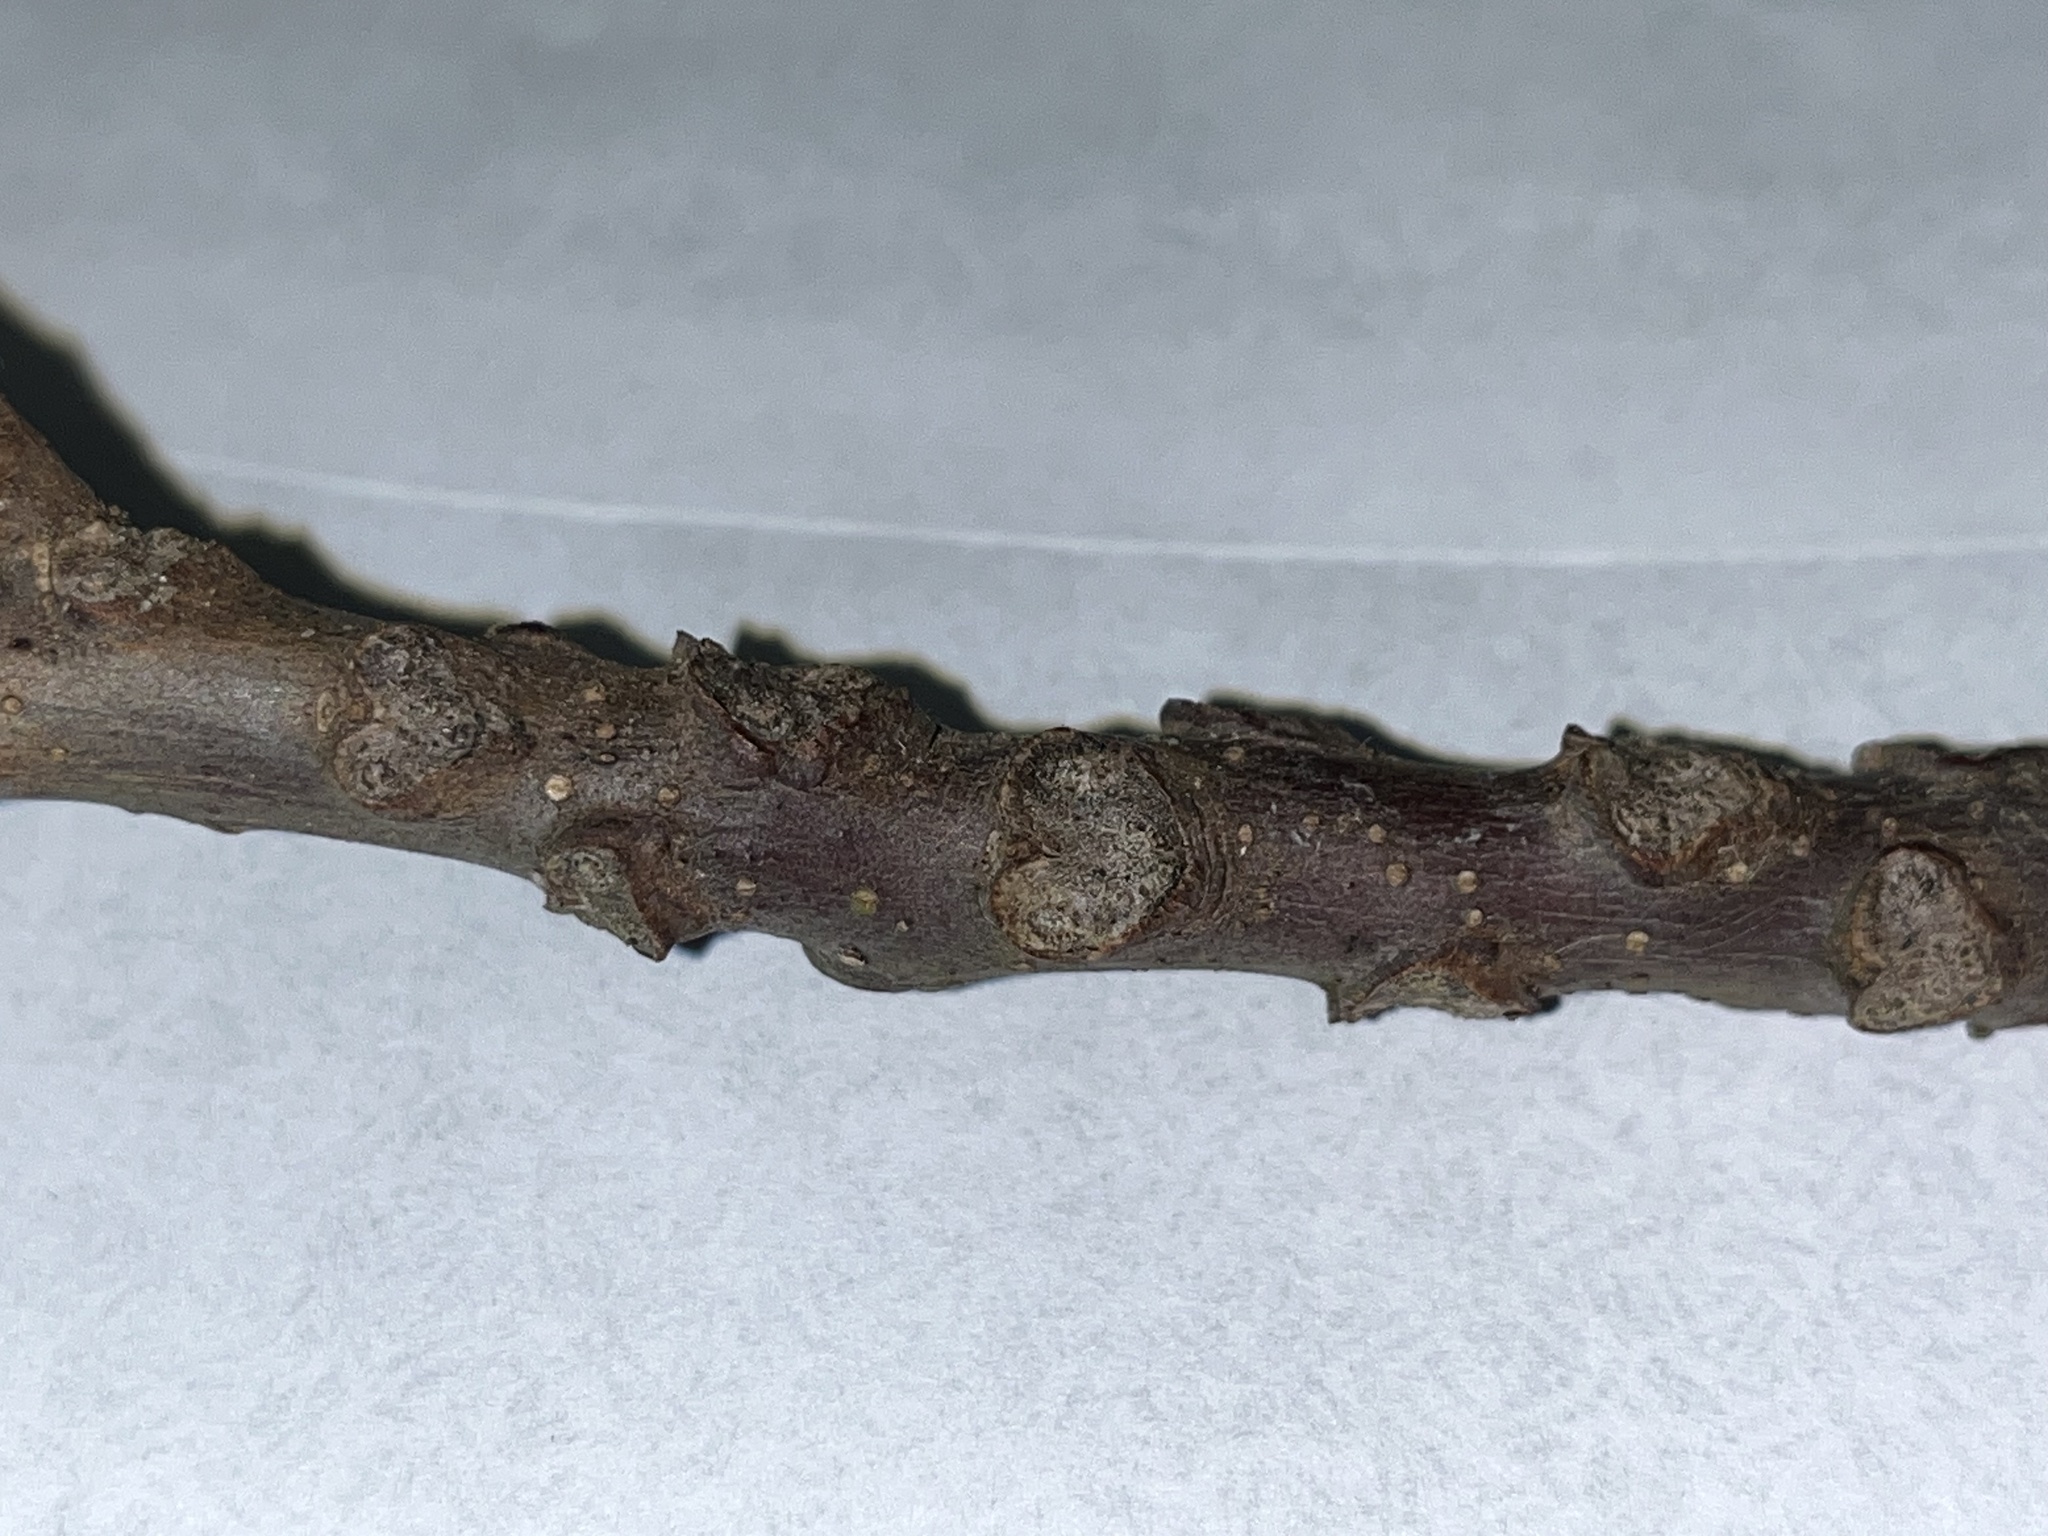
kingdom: Plantae
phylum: Tracheophyta
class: Magnoliopsida
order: Fagales
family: Juglandaceae
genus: Juglans
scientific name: Juglans nigra
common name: Black walnut
